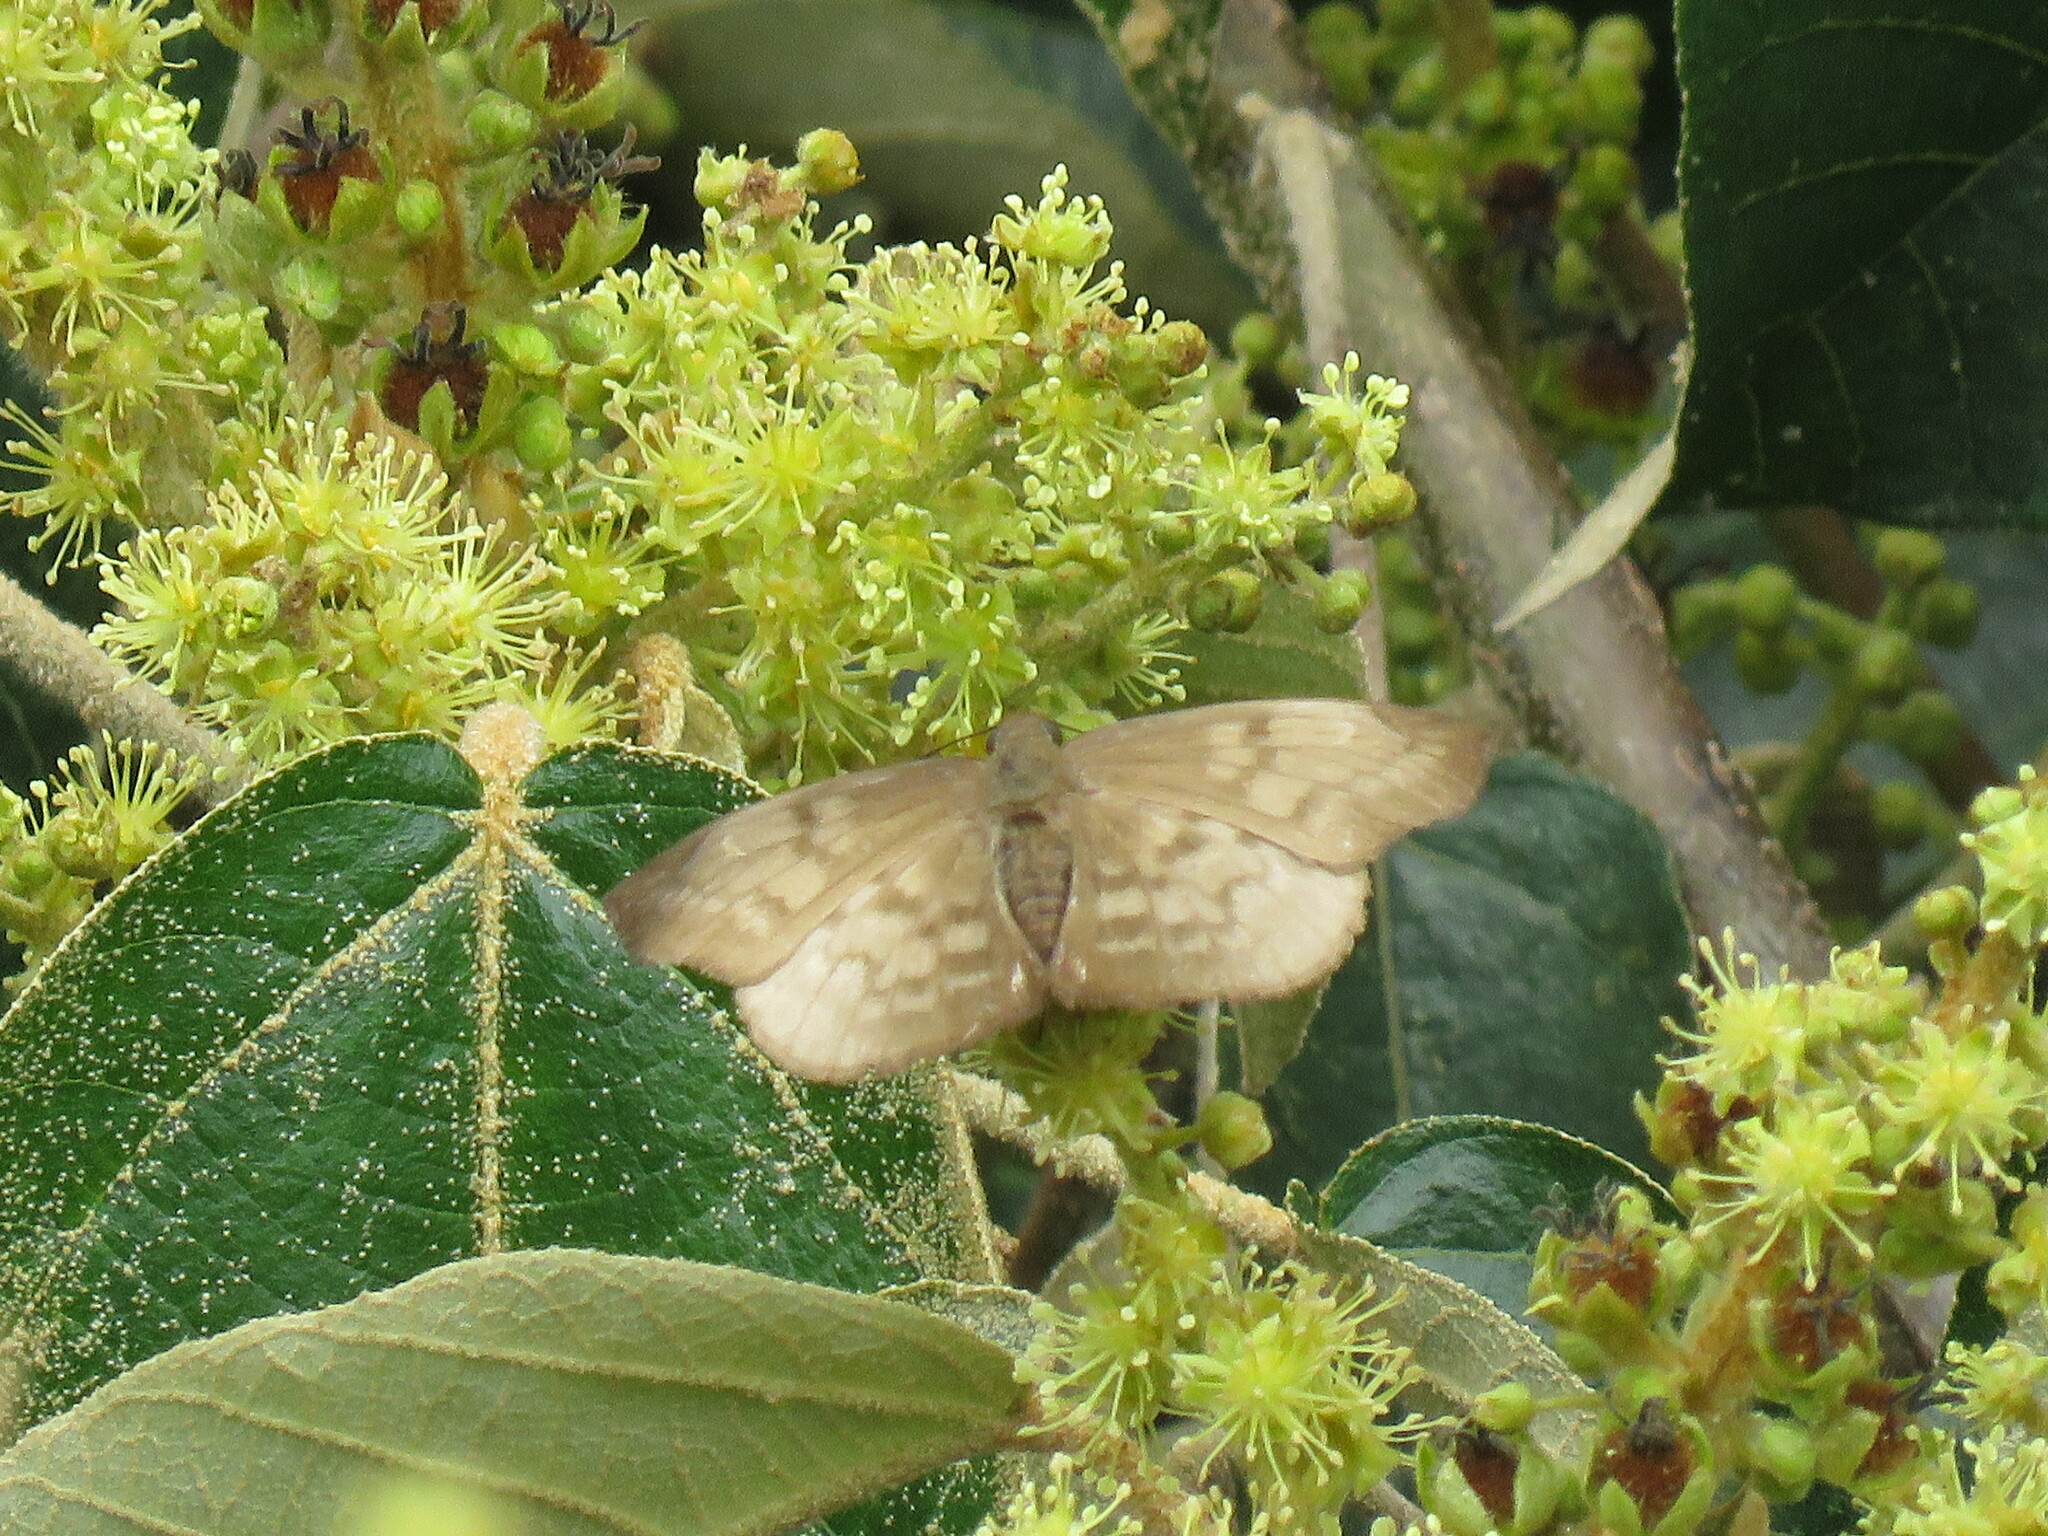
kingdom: Animalia
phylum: Arthropoda
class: Insecta
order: Lepidoptera
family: Hesperiidae
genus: Achlyodes
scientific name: Achlyodes pallida
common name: Pale sicklewing
